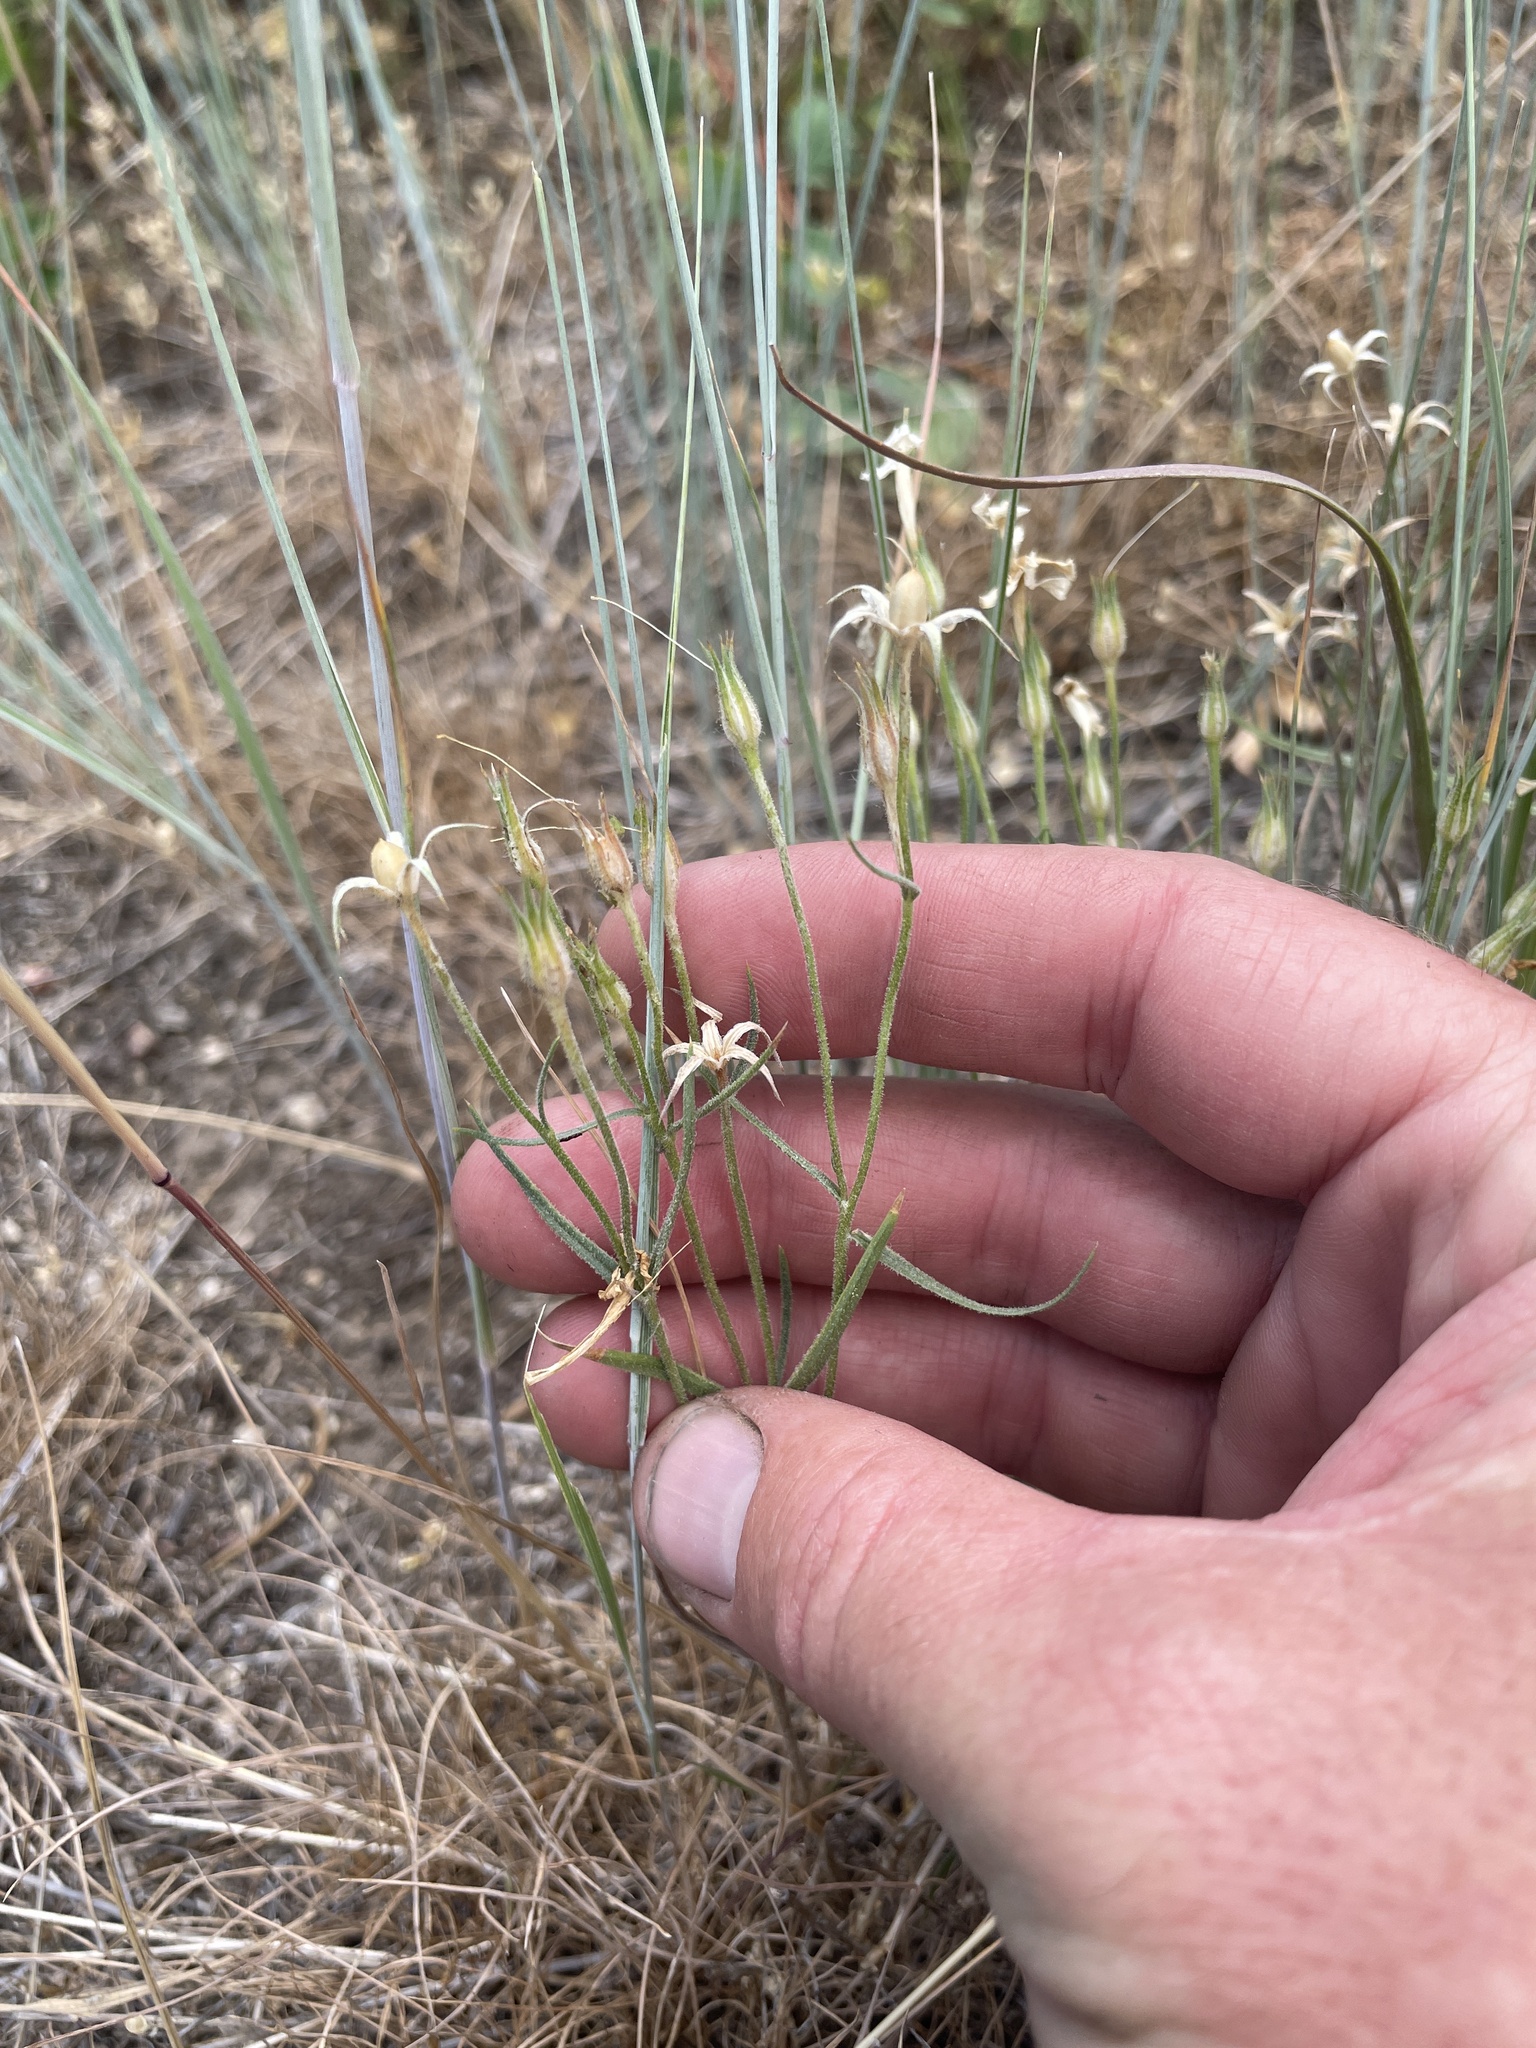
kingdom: Plantae
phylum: Tracheophyta
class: Magnoliopsida
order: Ericales
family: Polemoniaceae
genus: Phlox
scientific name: Phlox longifolia
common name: Longleaf phlox
